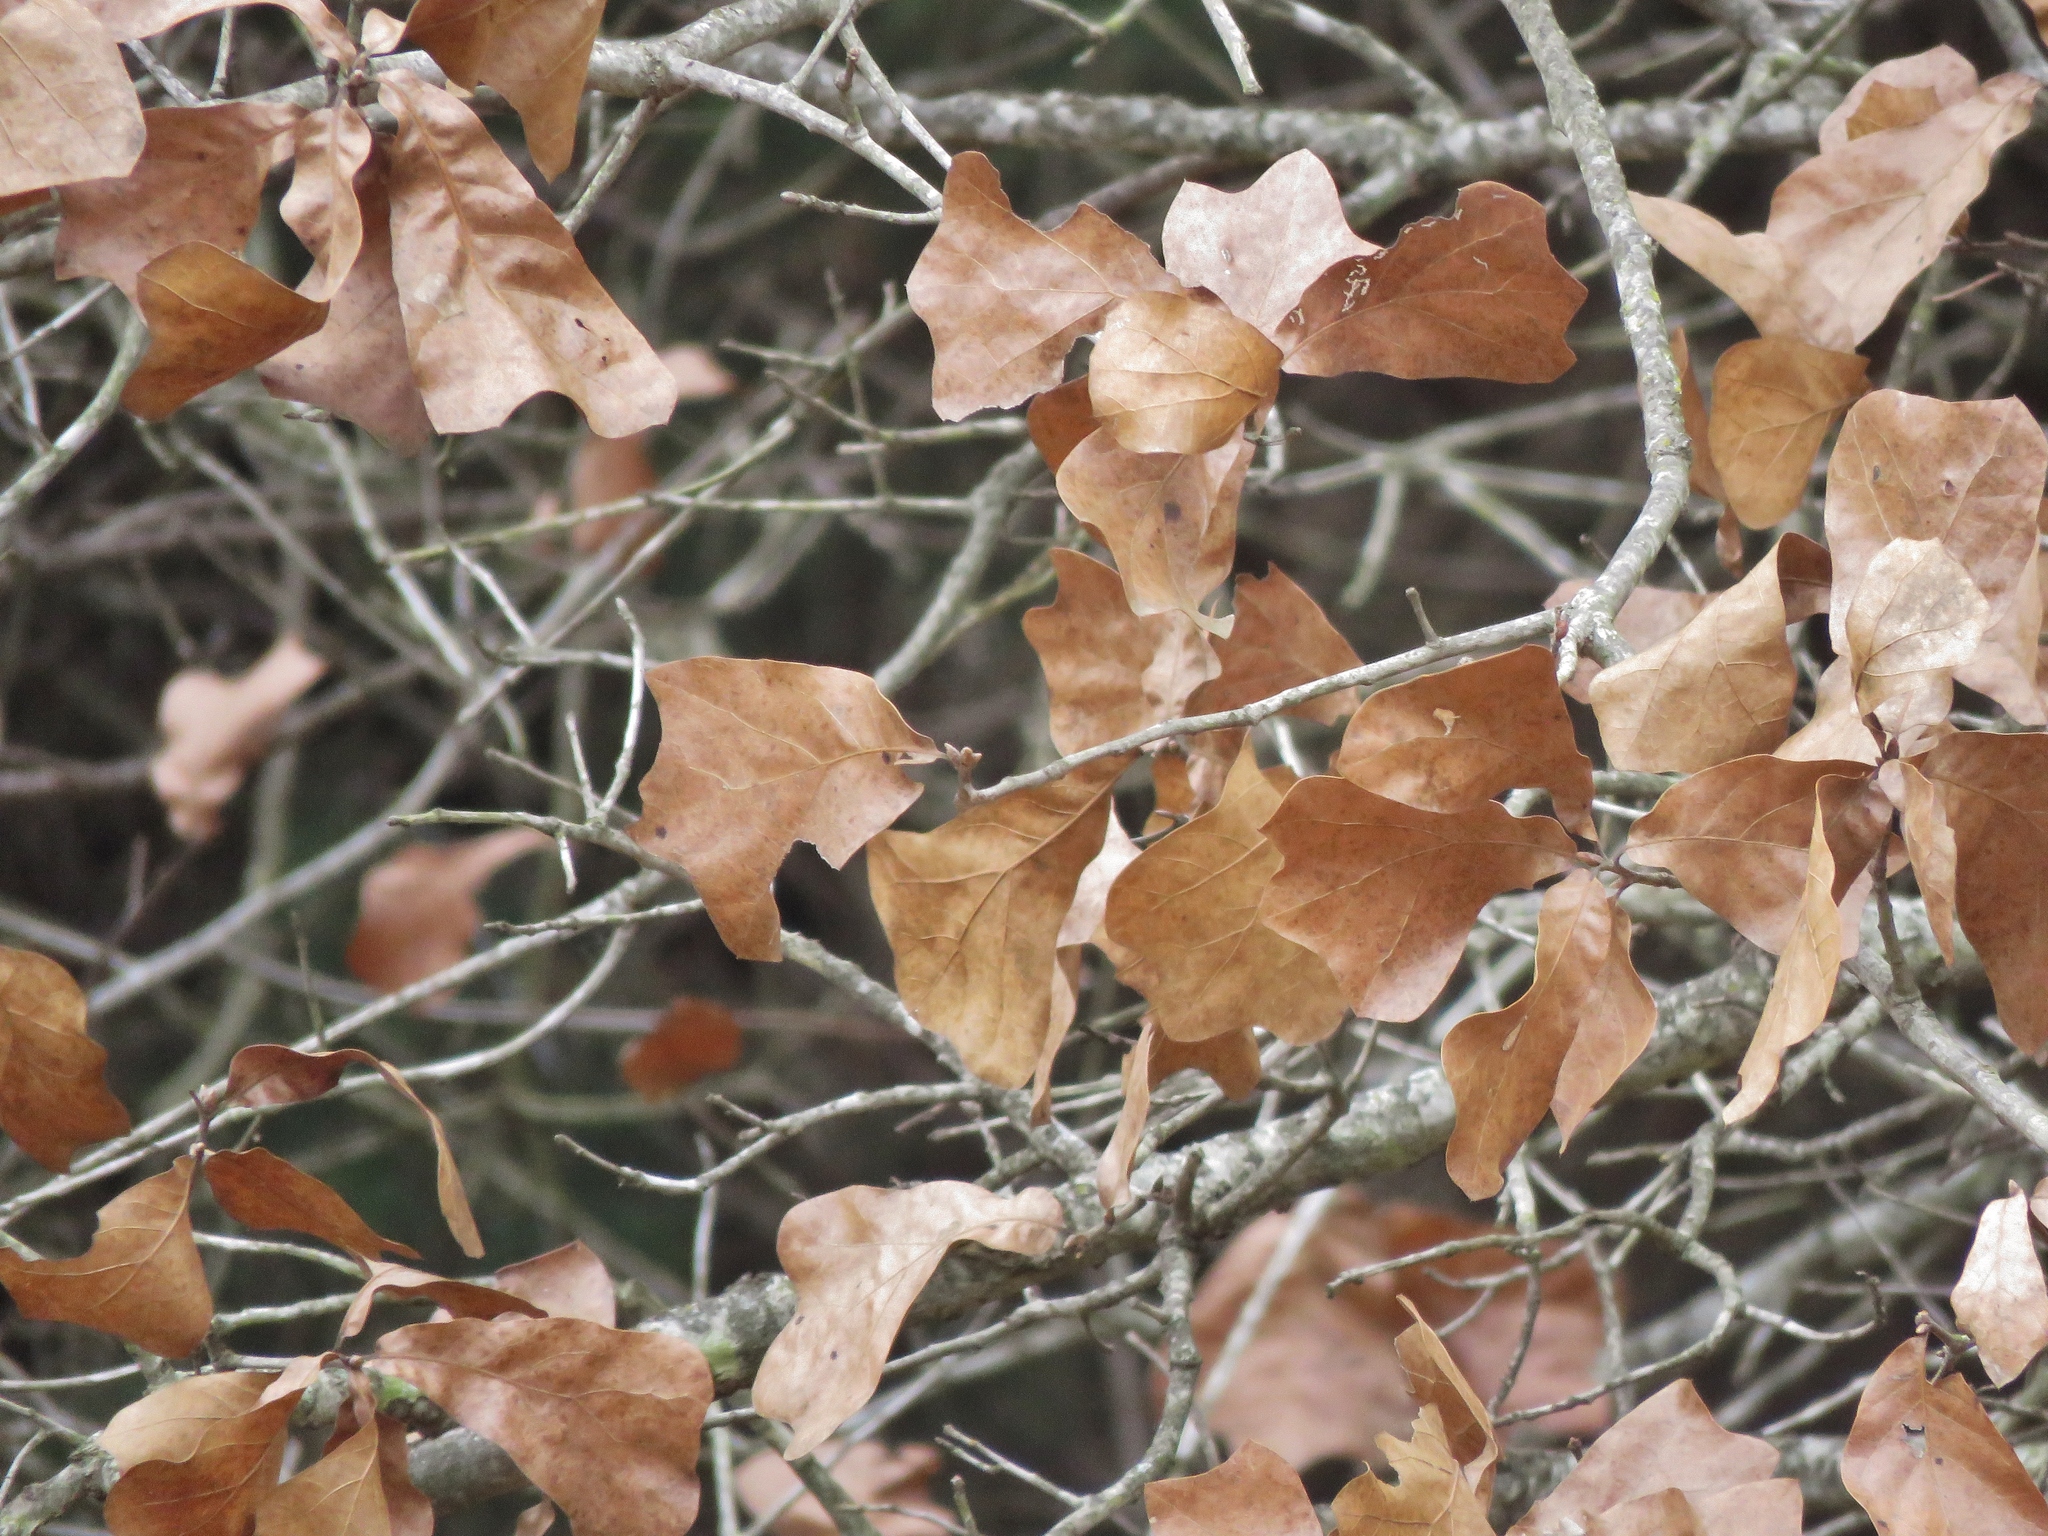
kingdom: Plantae
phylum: Tracheophyta
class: Magnoliopsida
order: Fagales
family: Fagaceae
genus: Quercus
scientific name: Quercus marilandica
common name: Blackjack oak
